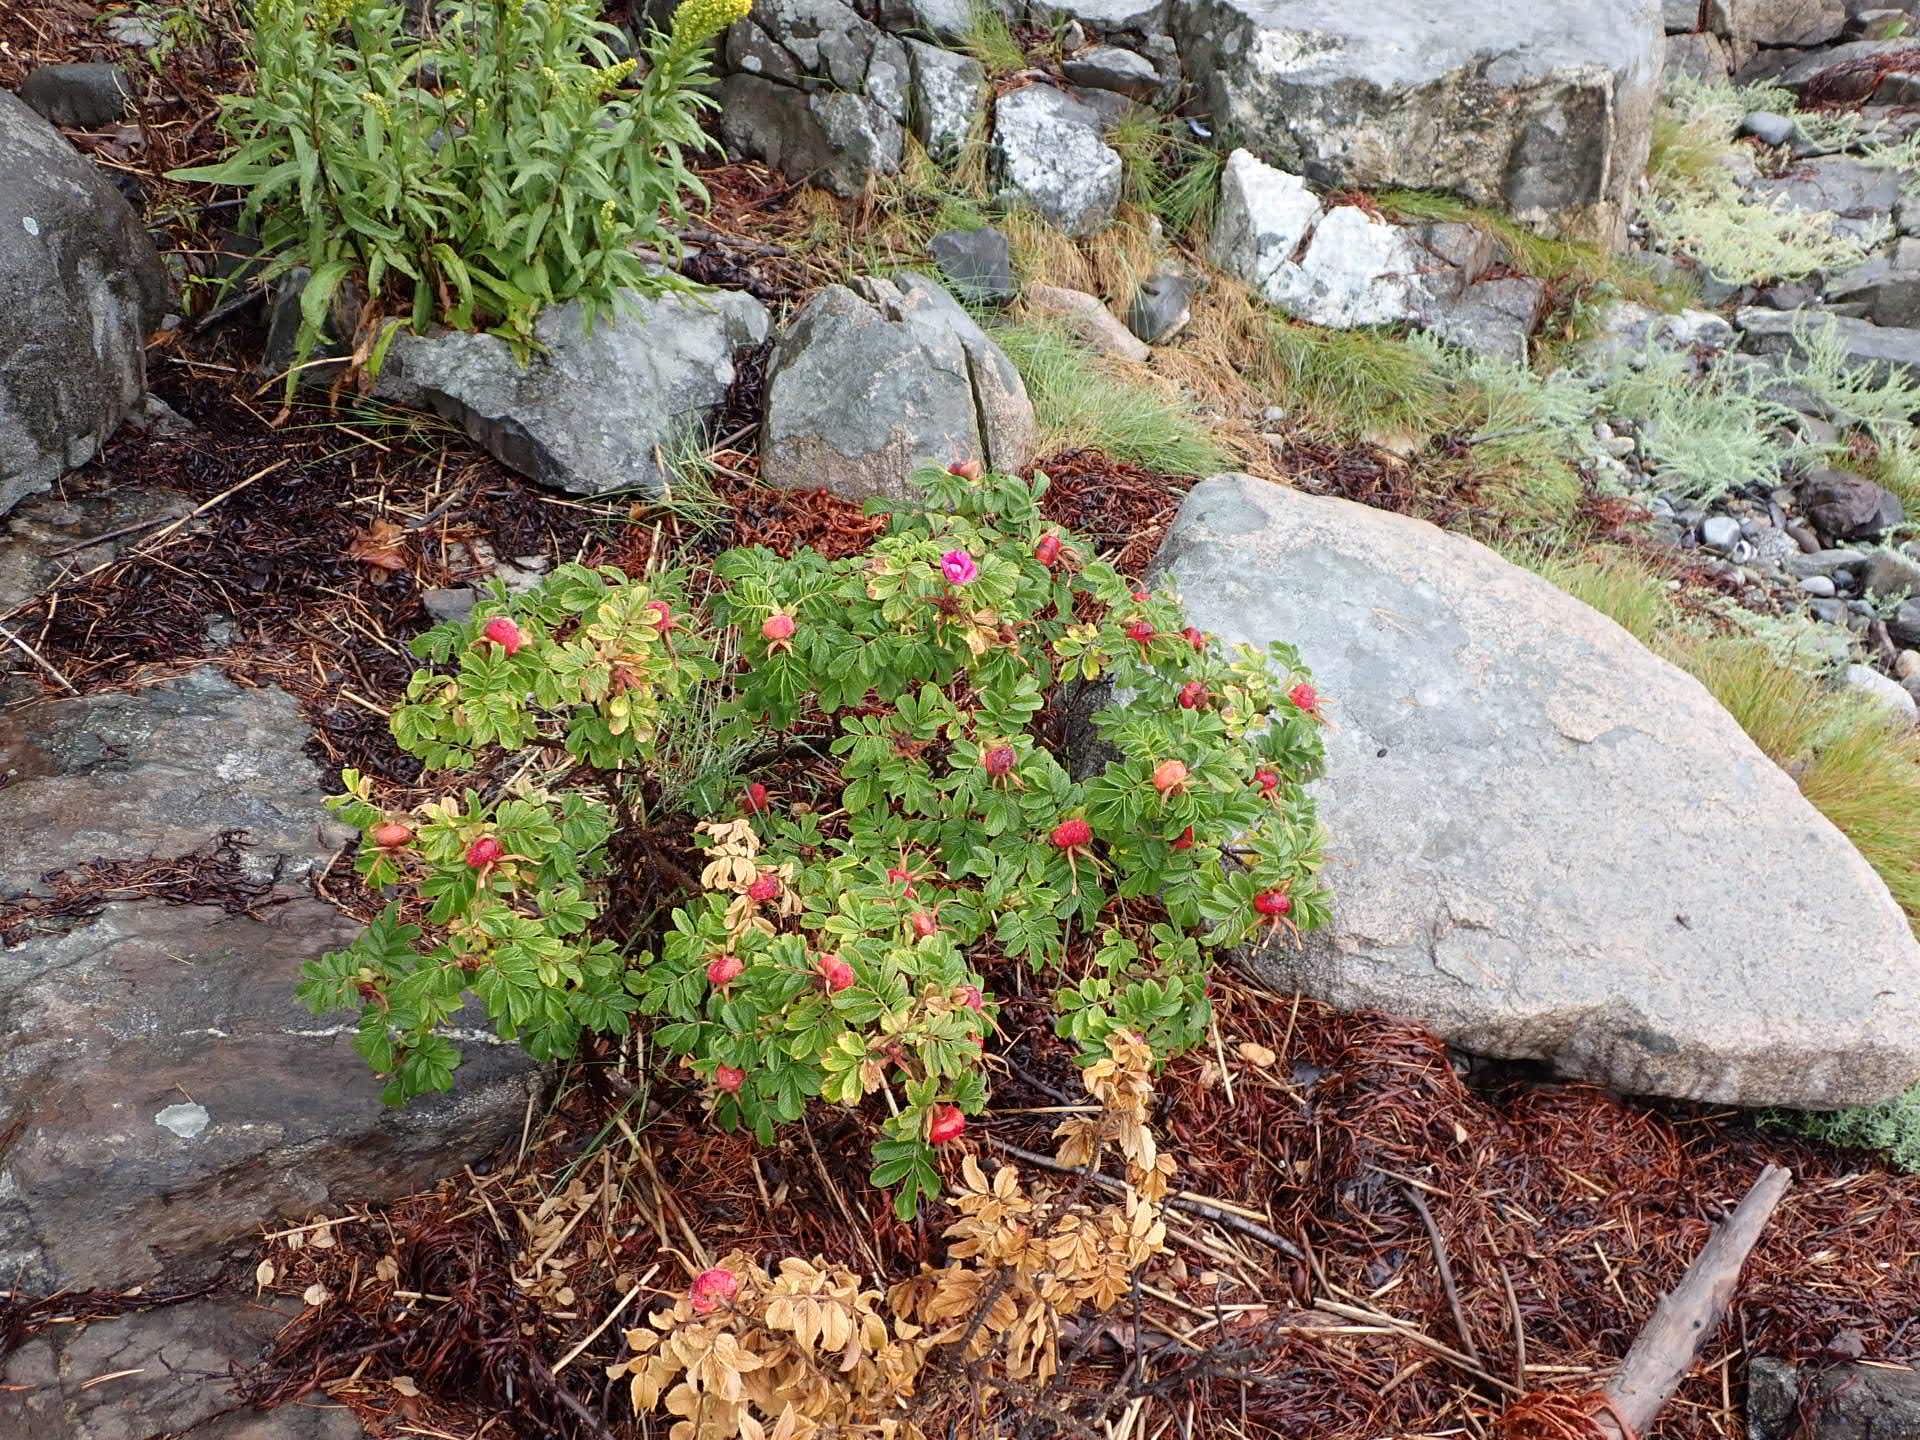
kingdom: Plantae
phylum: Tracheophyta
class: Magnoliopsida
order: Rosales
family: Rosaceae
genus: Rosa
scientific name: Rosa rugosa
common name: Japanese rose
